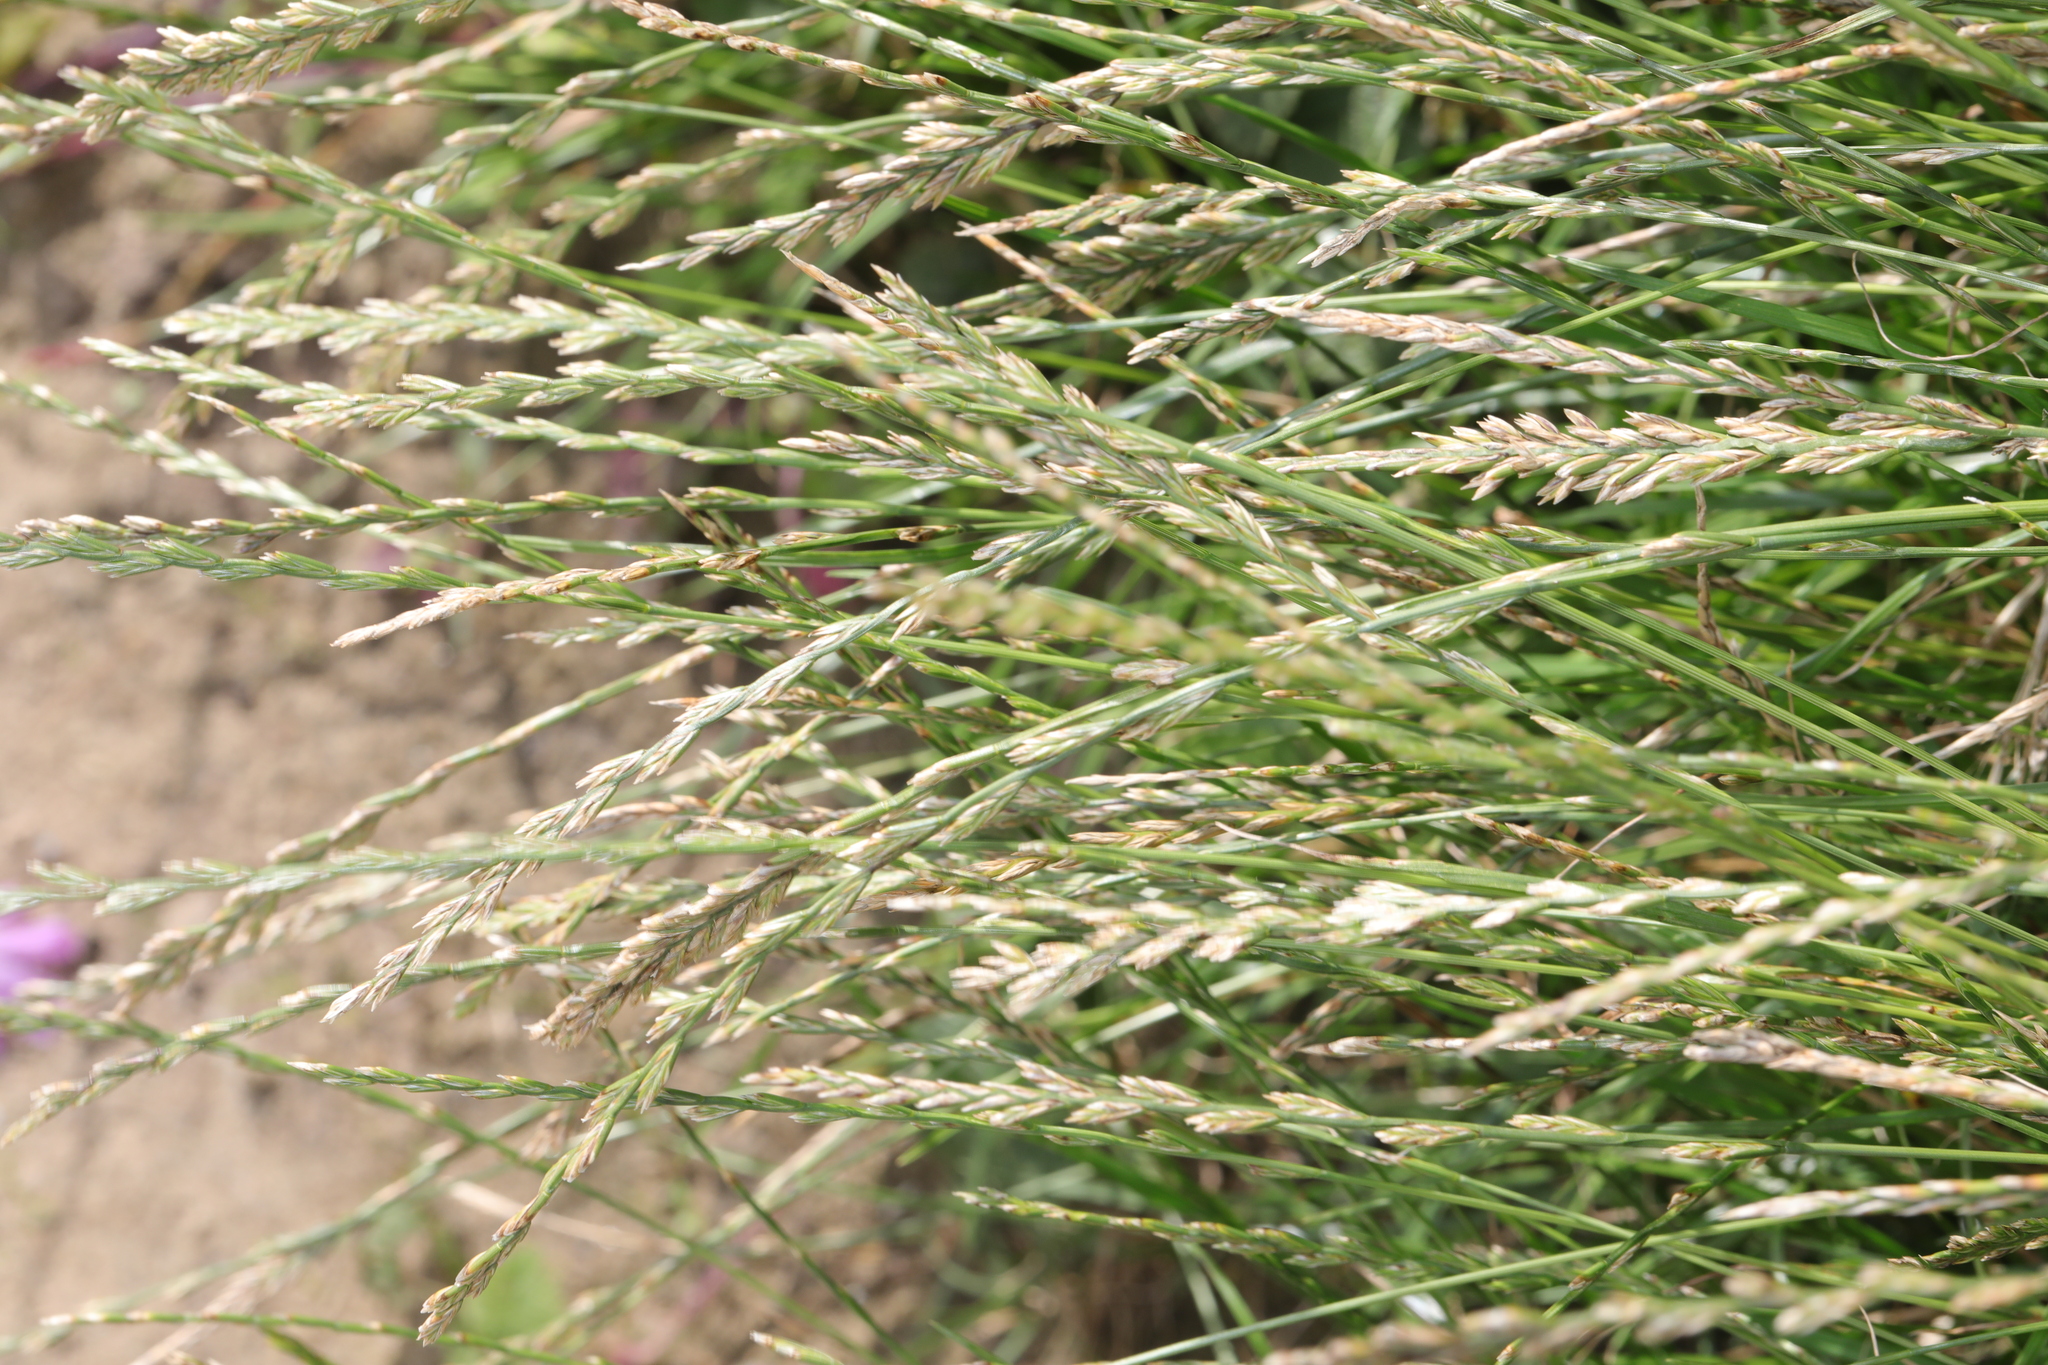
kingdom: Plantae
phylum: Tracheophyta
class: Liliopsida
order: Poales
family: Poaceae
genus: Lolium
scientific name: Lolium perenne
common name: Perennial ryegrass
